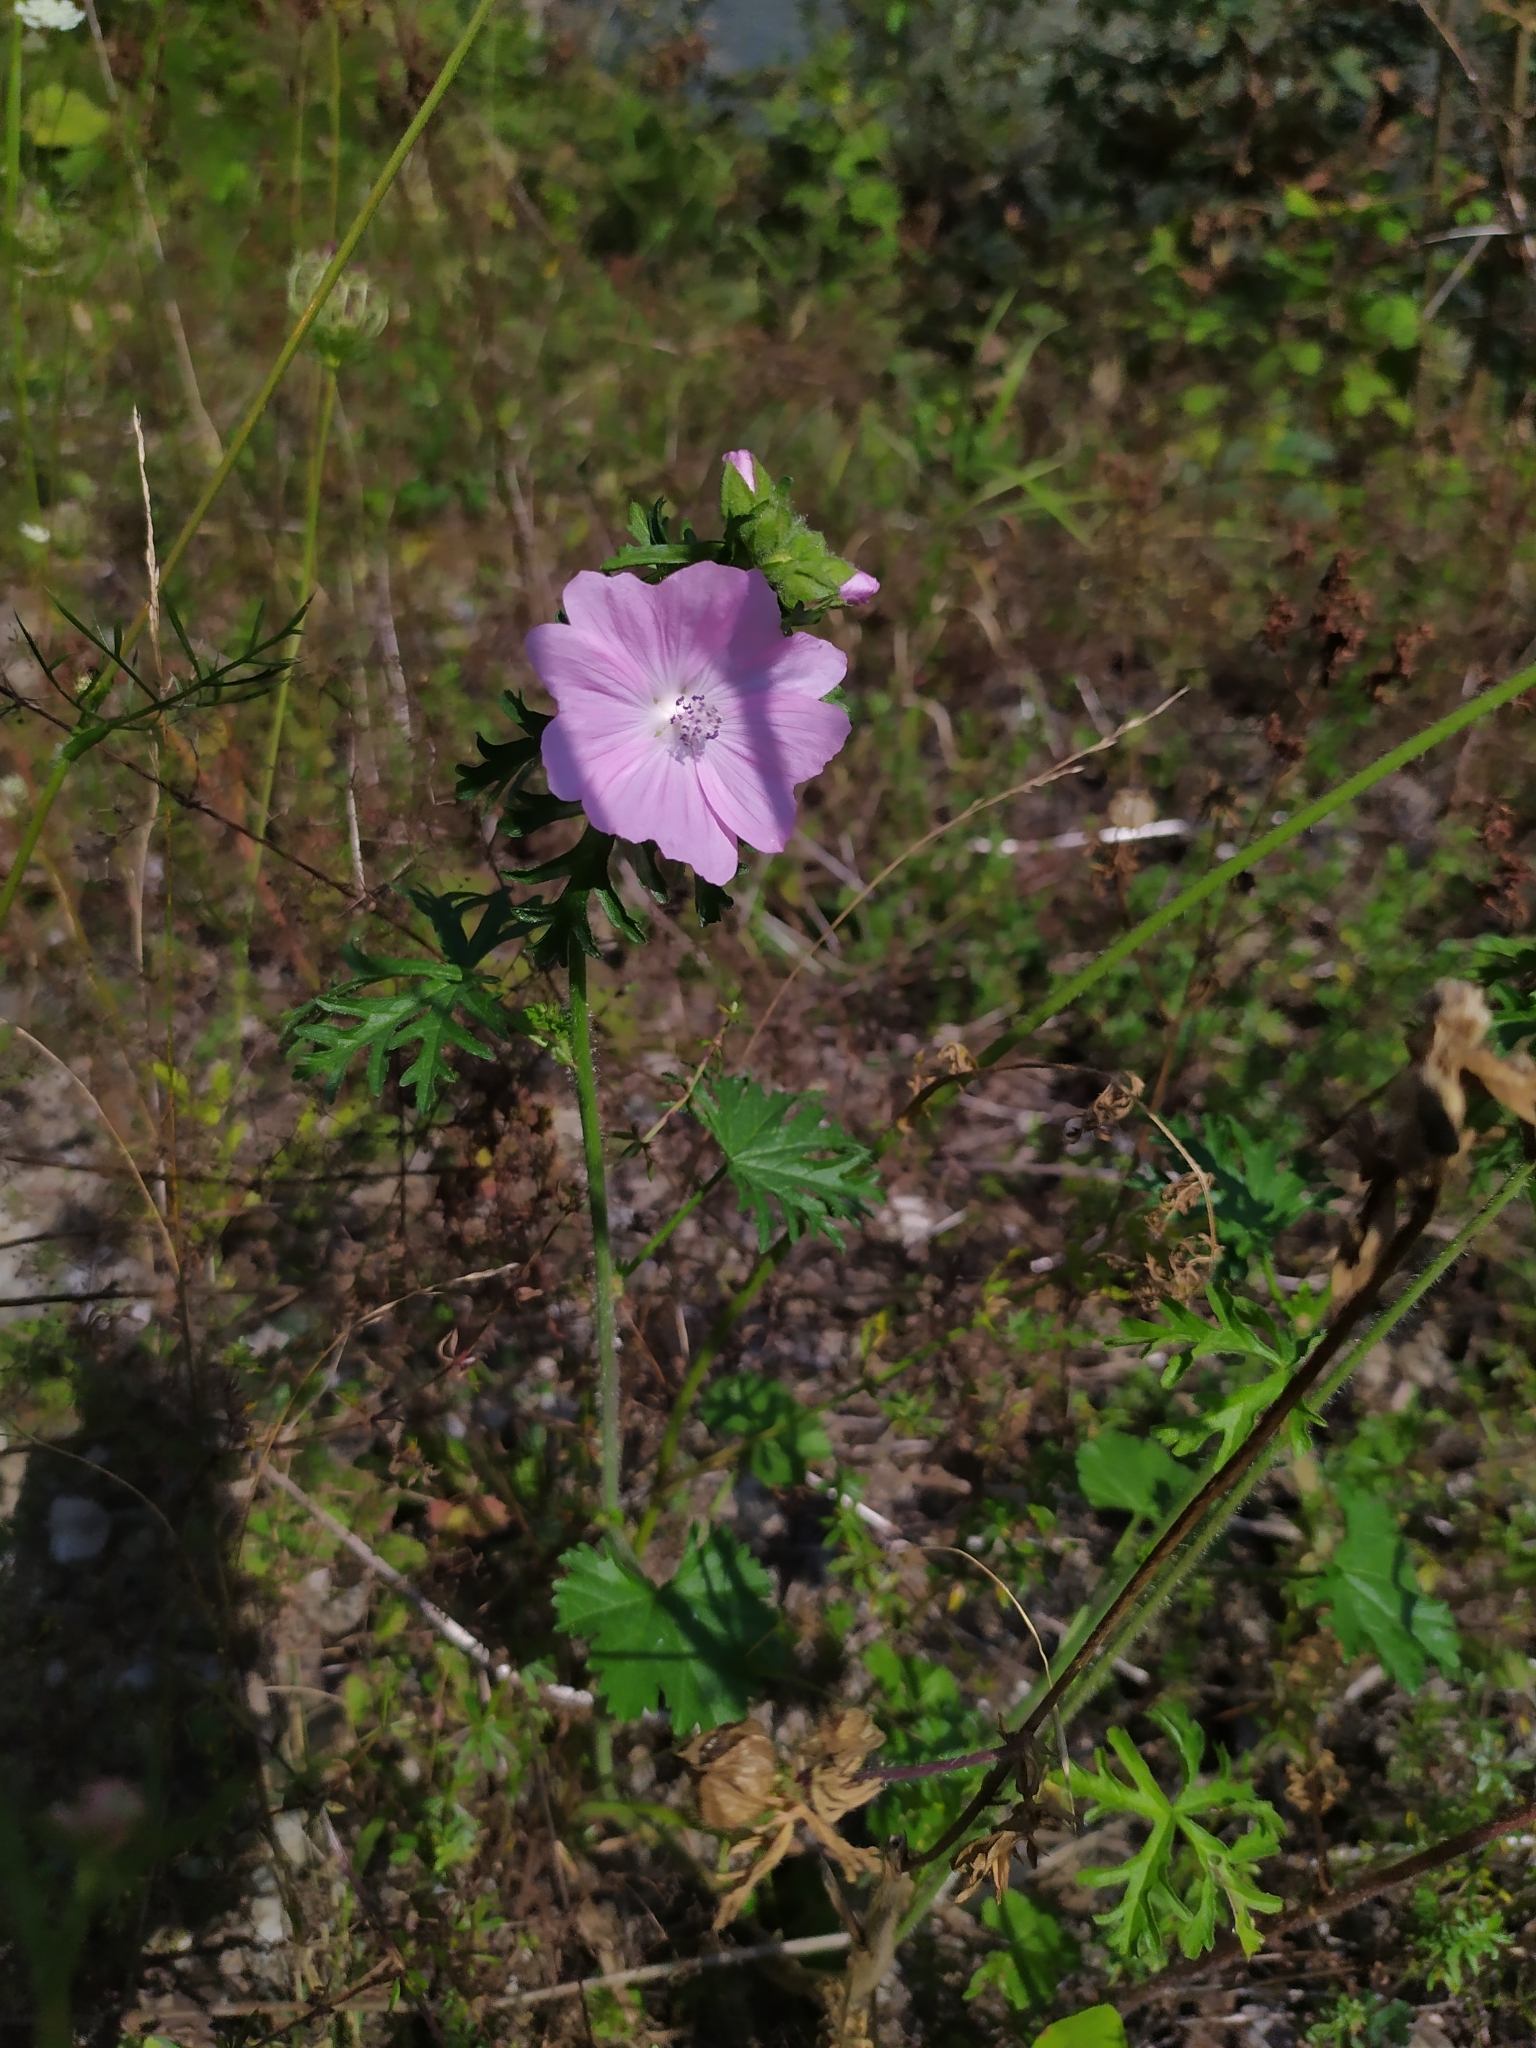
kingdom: Plantae
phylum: Tracheophyta
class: Magnoliopsida
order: Malvales
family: Malvaceae
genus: Malva
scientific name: Malva moschata
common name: Musk mallow
